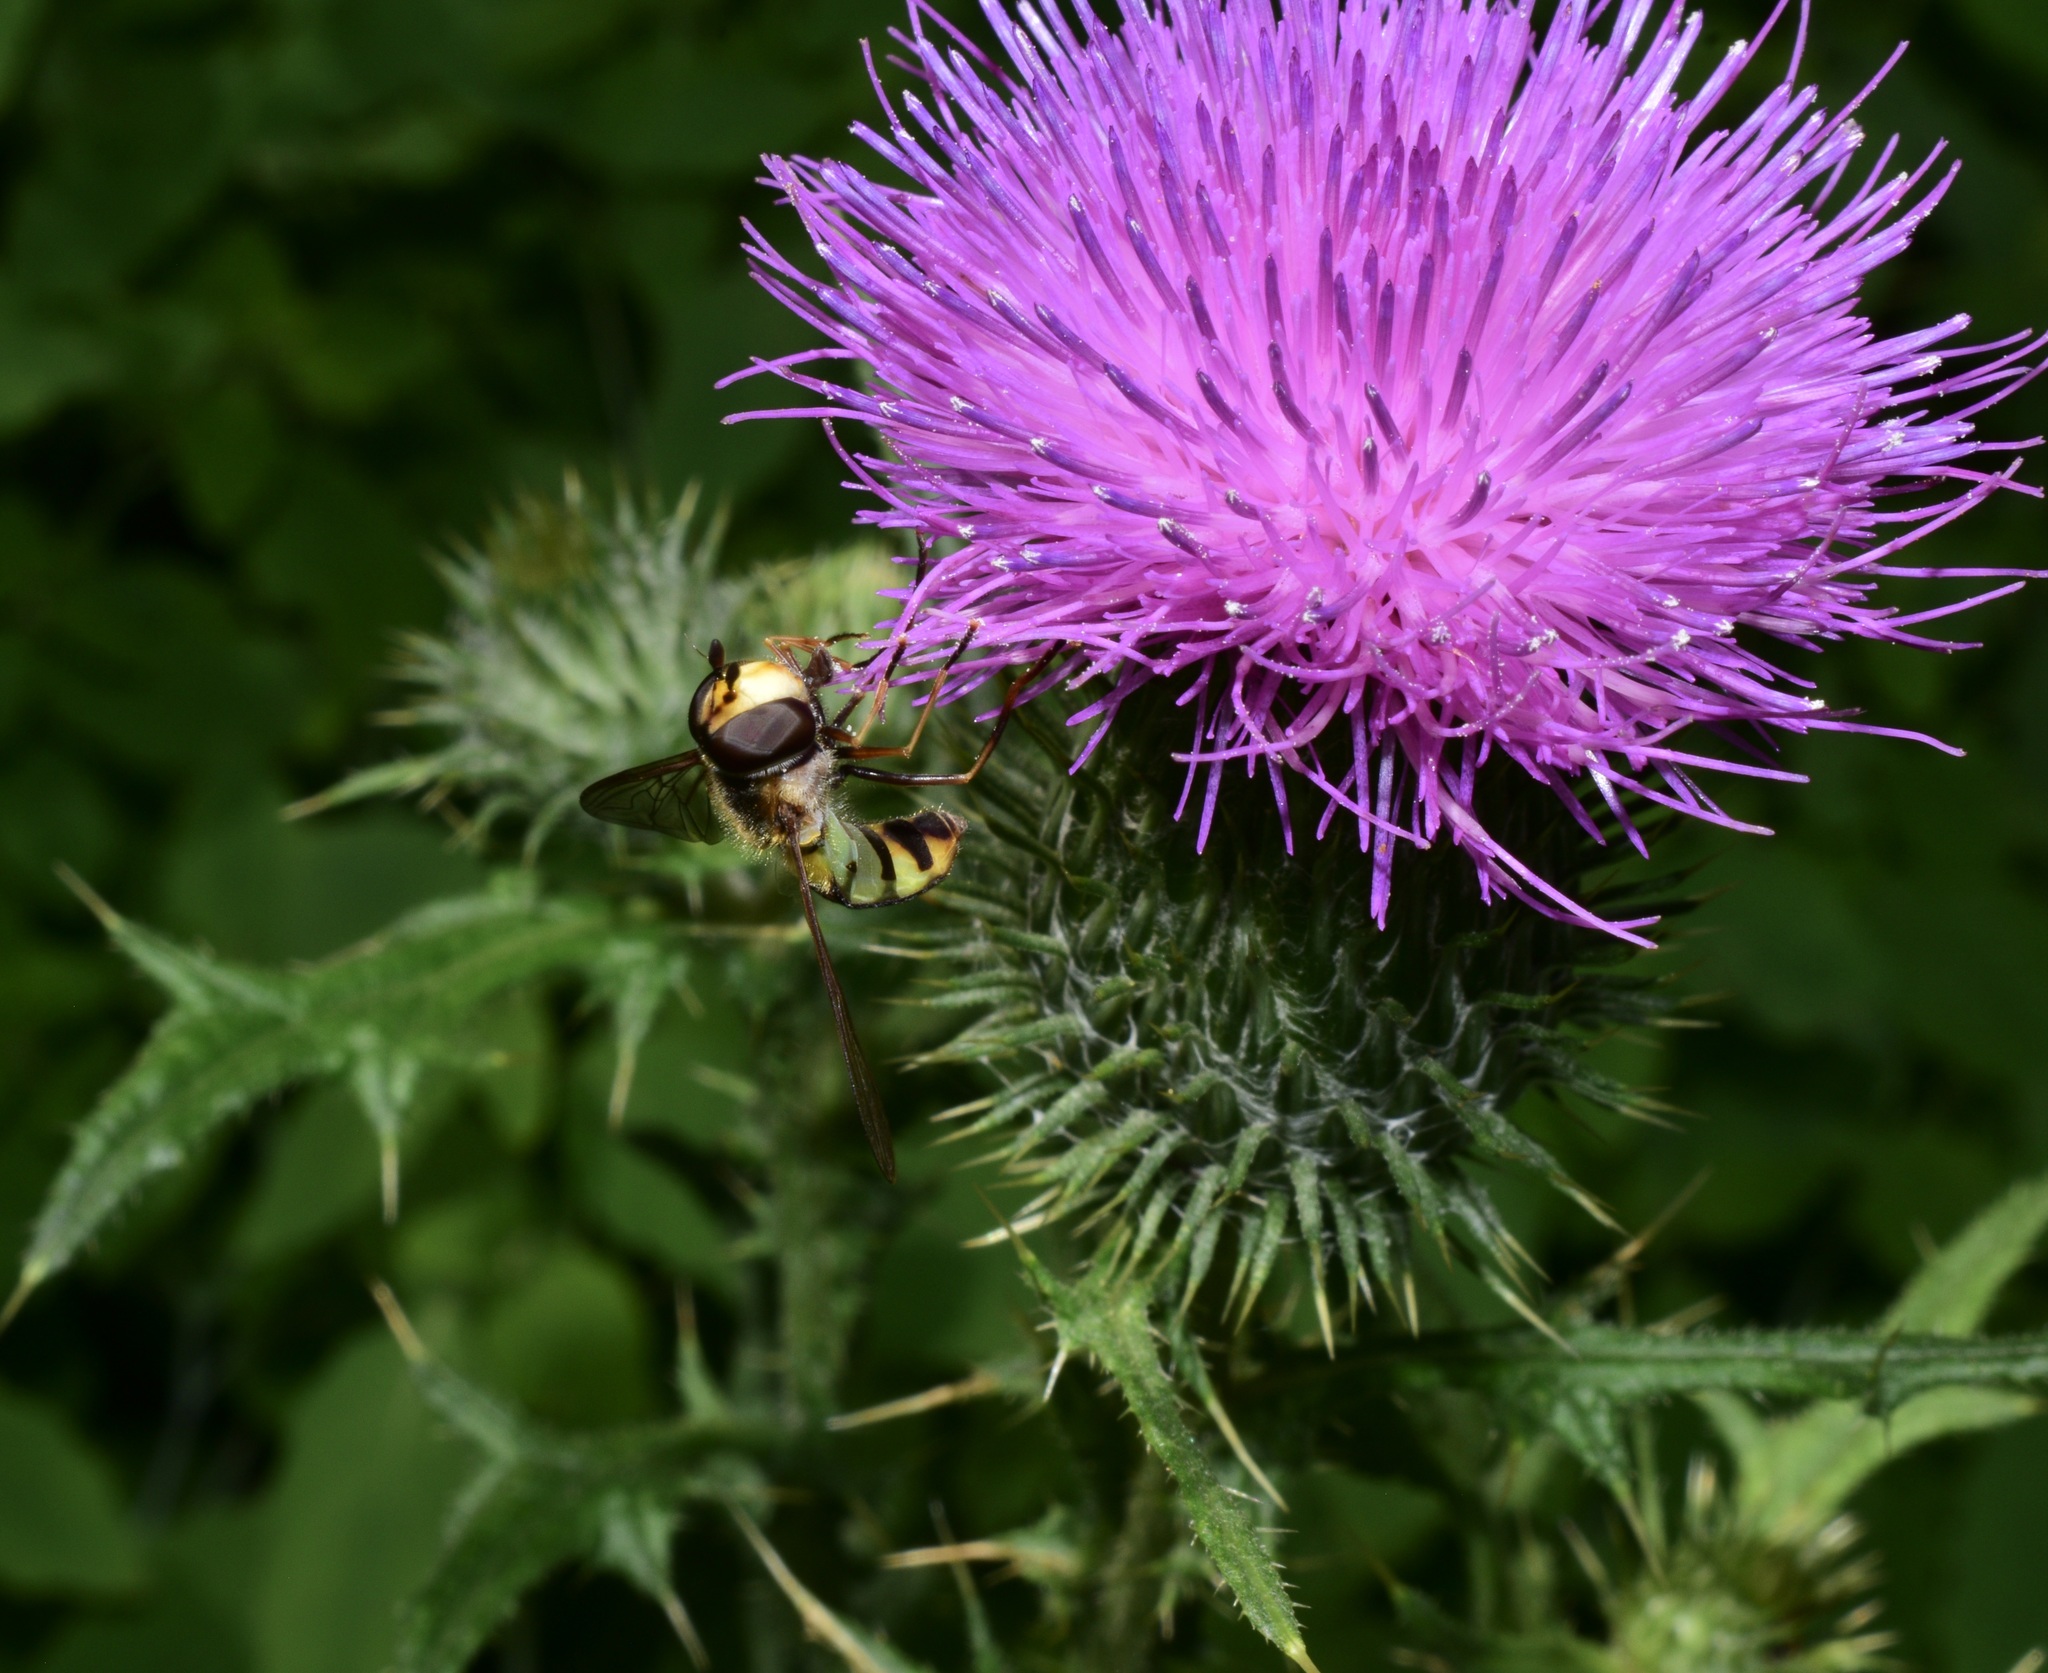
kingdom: Animalia
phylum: Arthropoda
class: Insecta
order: Diptera
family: Syrphidae
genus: Didea
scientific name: Didea fuscipes
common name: Undivided lucent
